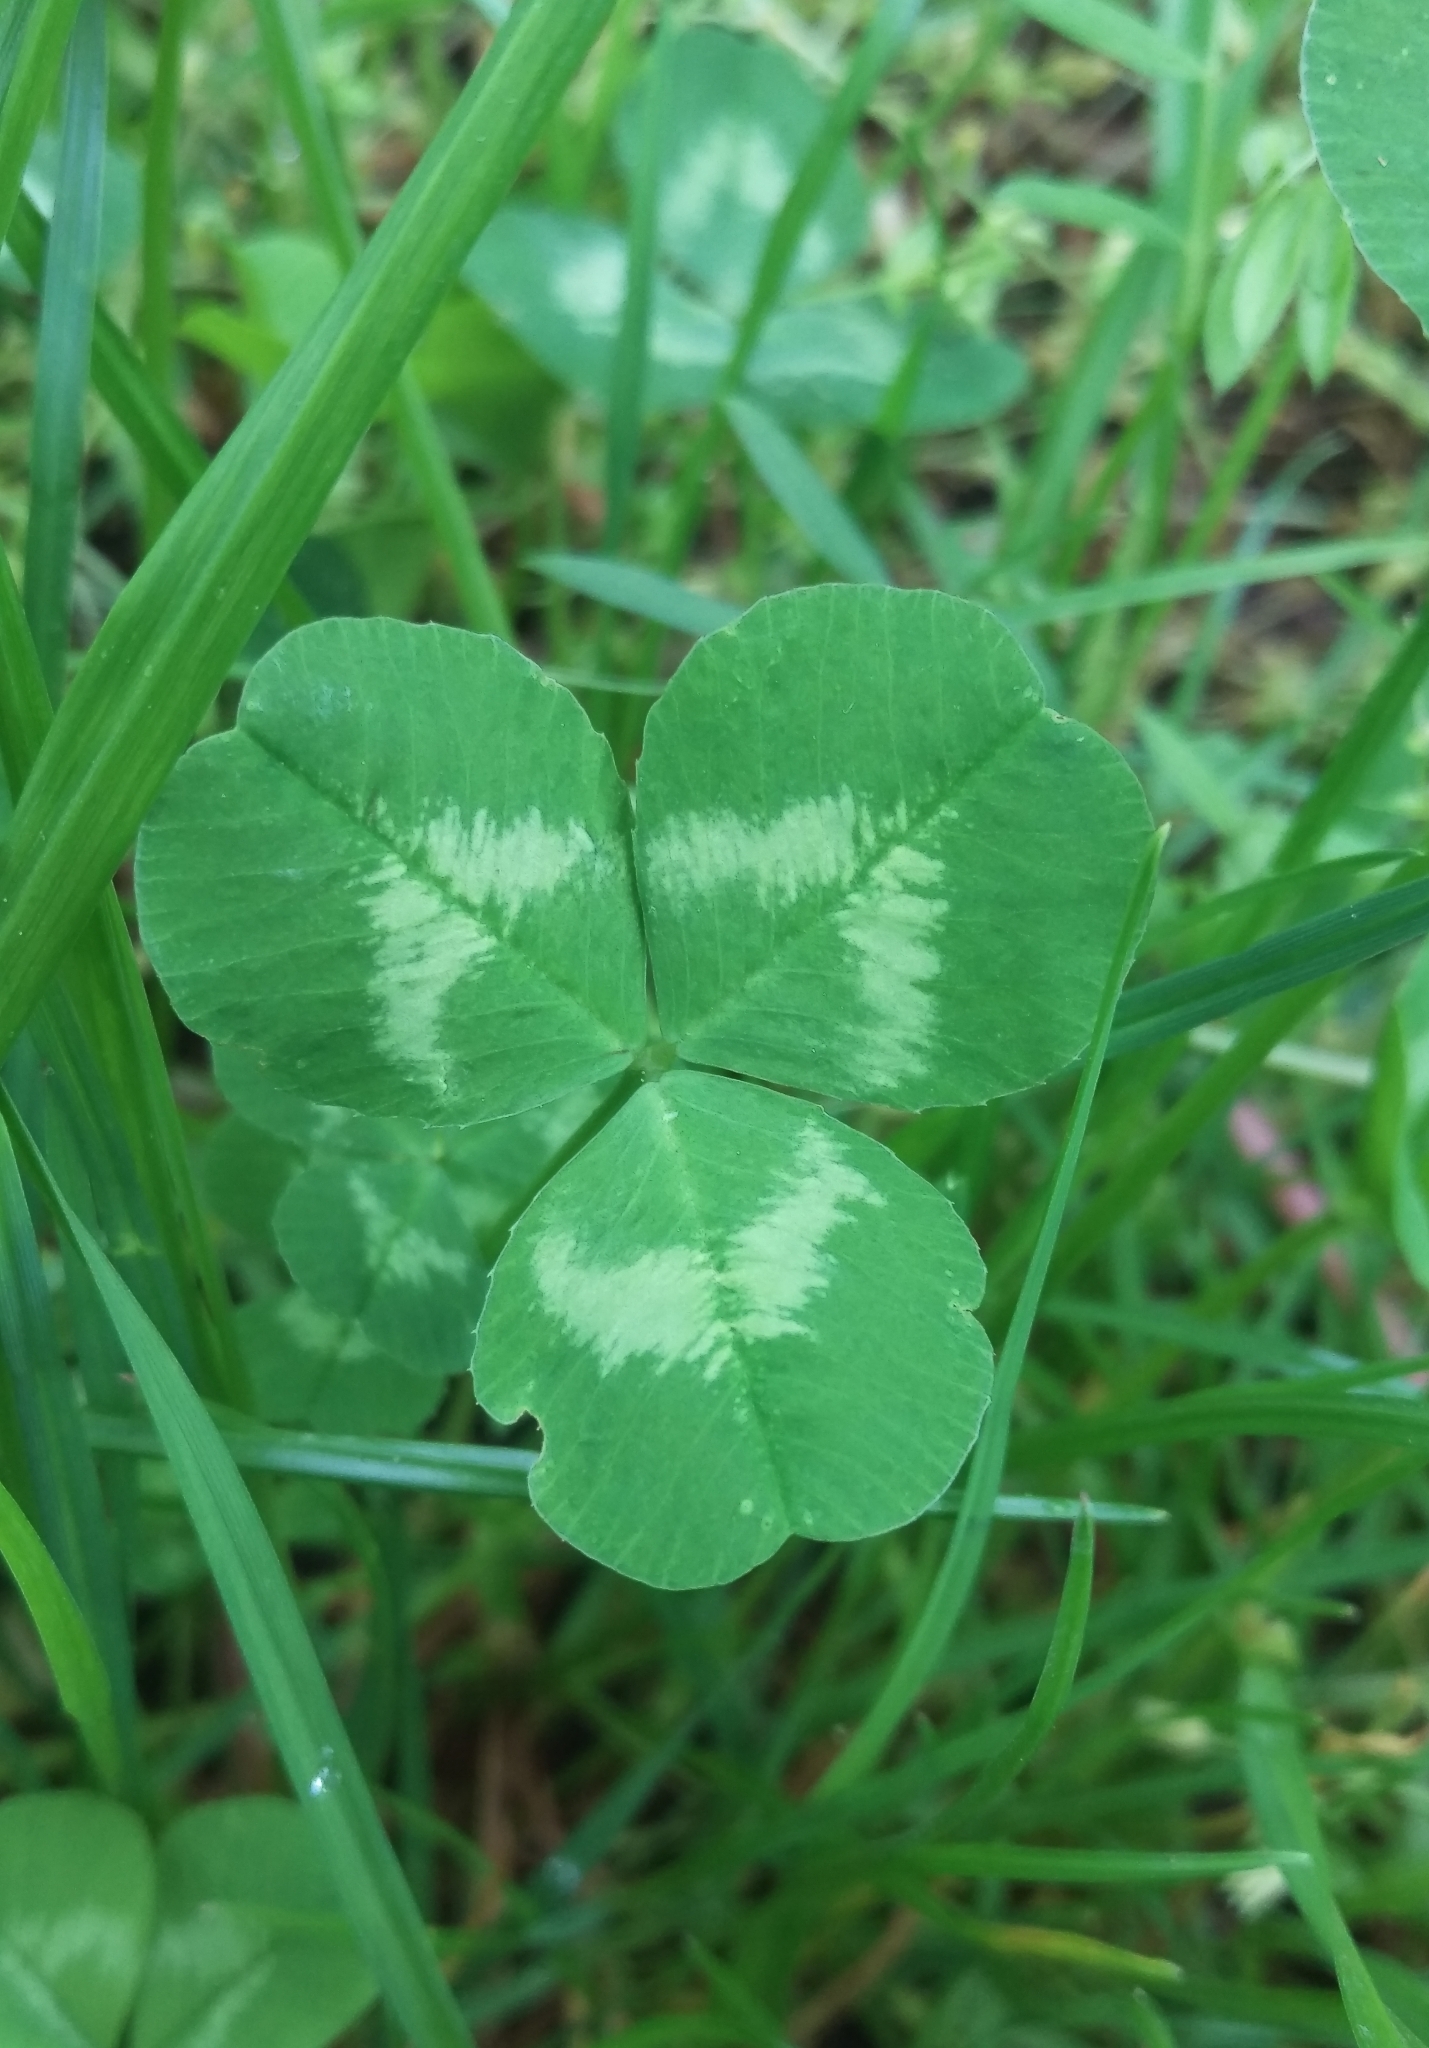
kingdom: Plantae
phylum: Tracheophyta
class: Magnoliopsida
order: Fabales
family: Fabaceae
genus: Trifolium
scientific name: Trifolium repens
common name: White clover
